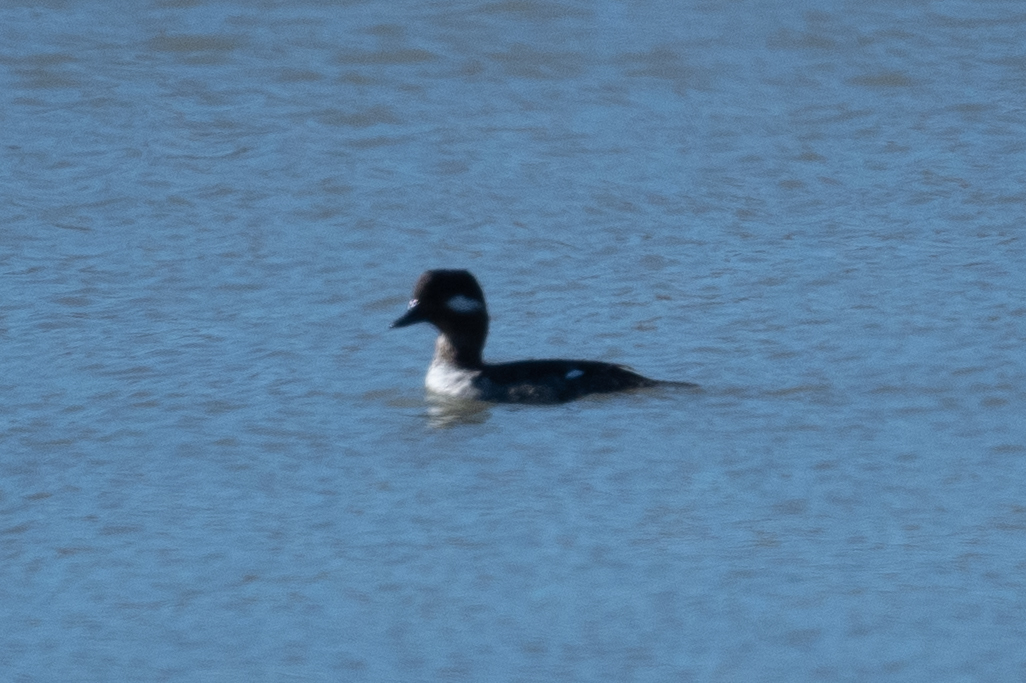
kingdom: Animalia
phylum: Chordata
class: Aves
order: Anseriformes
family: Anatidae
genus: Bucephala
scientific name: Bucephala albeola
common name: Bufflehead
